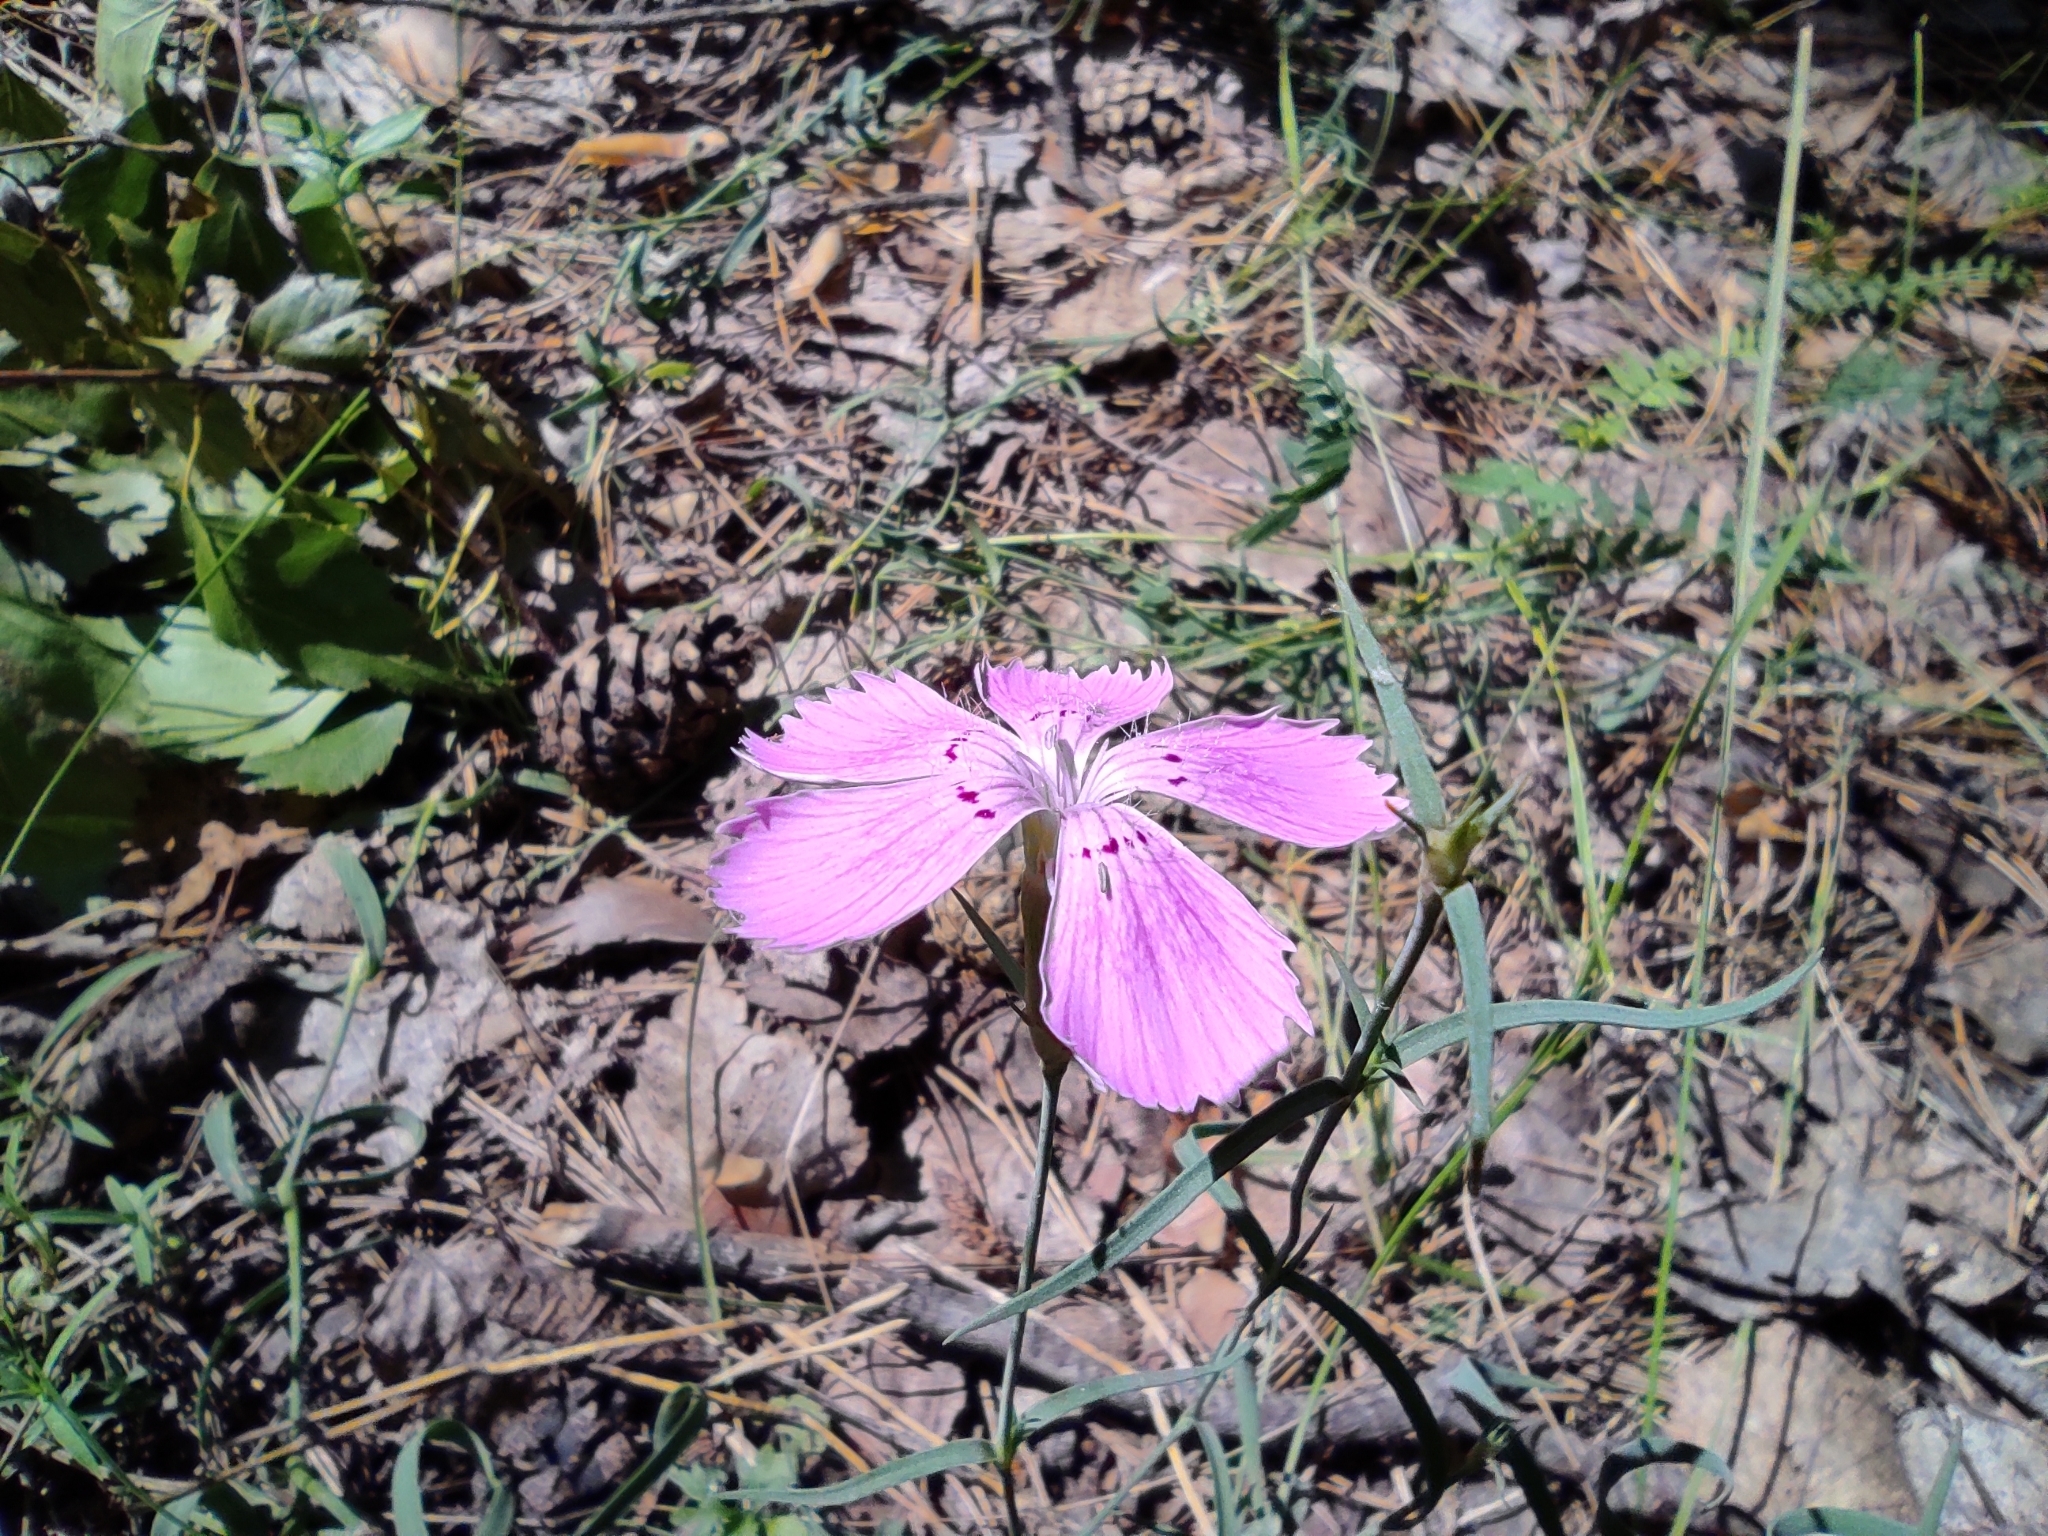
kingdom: Plantae
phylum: Tracheophyta
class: Magnoliopsida
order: Caryophyllales
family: Caryophyllaceae
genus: Dianthus
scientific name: Dianthus chinensis
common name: Rainbow pink
